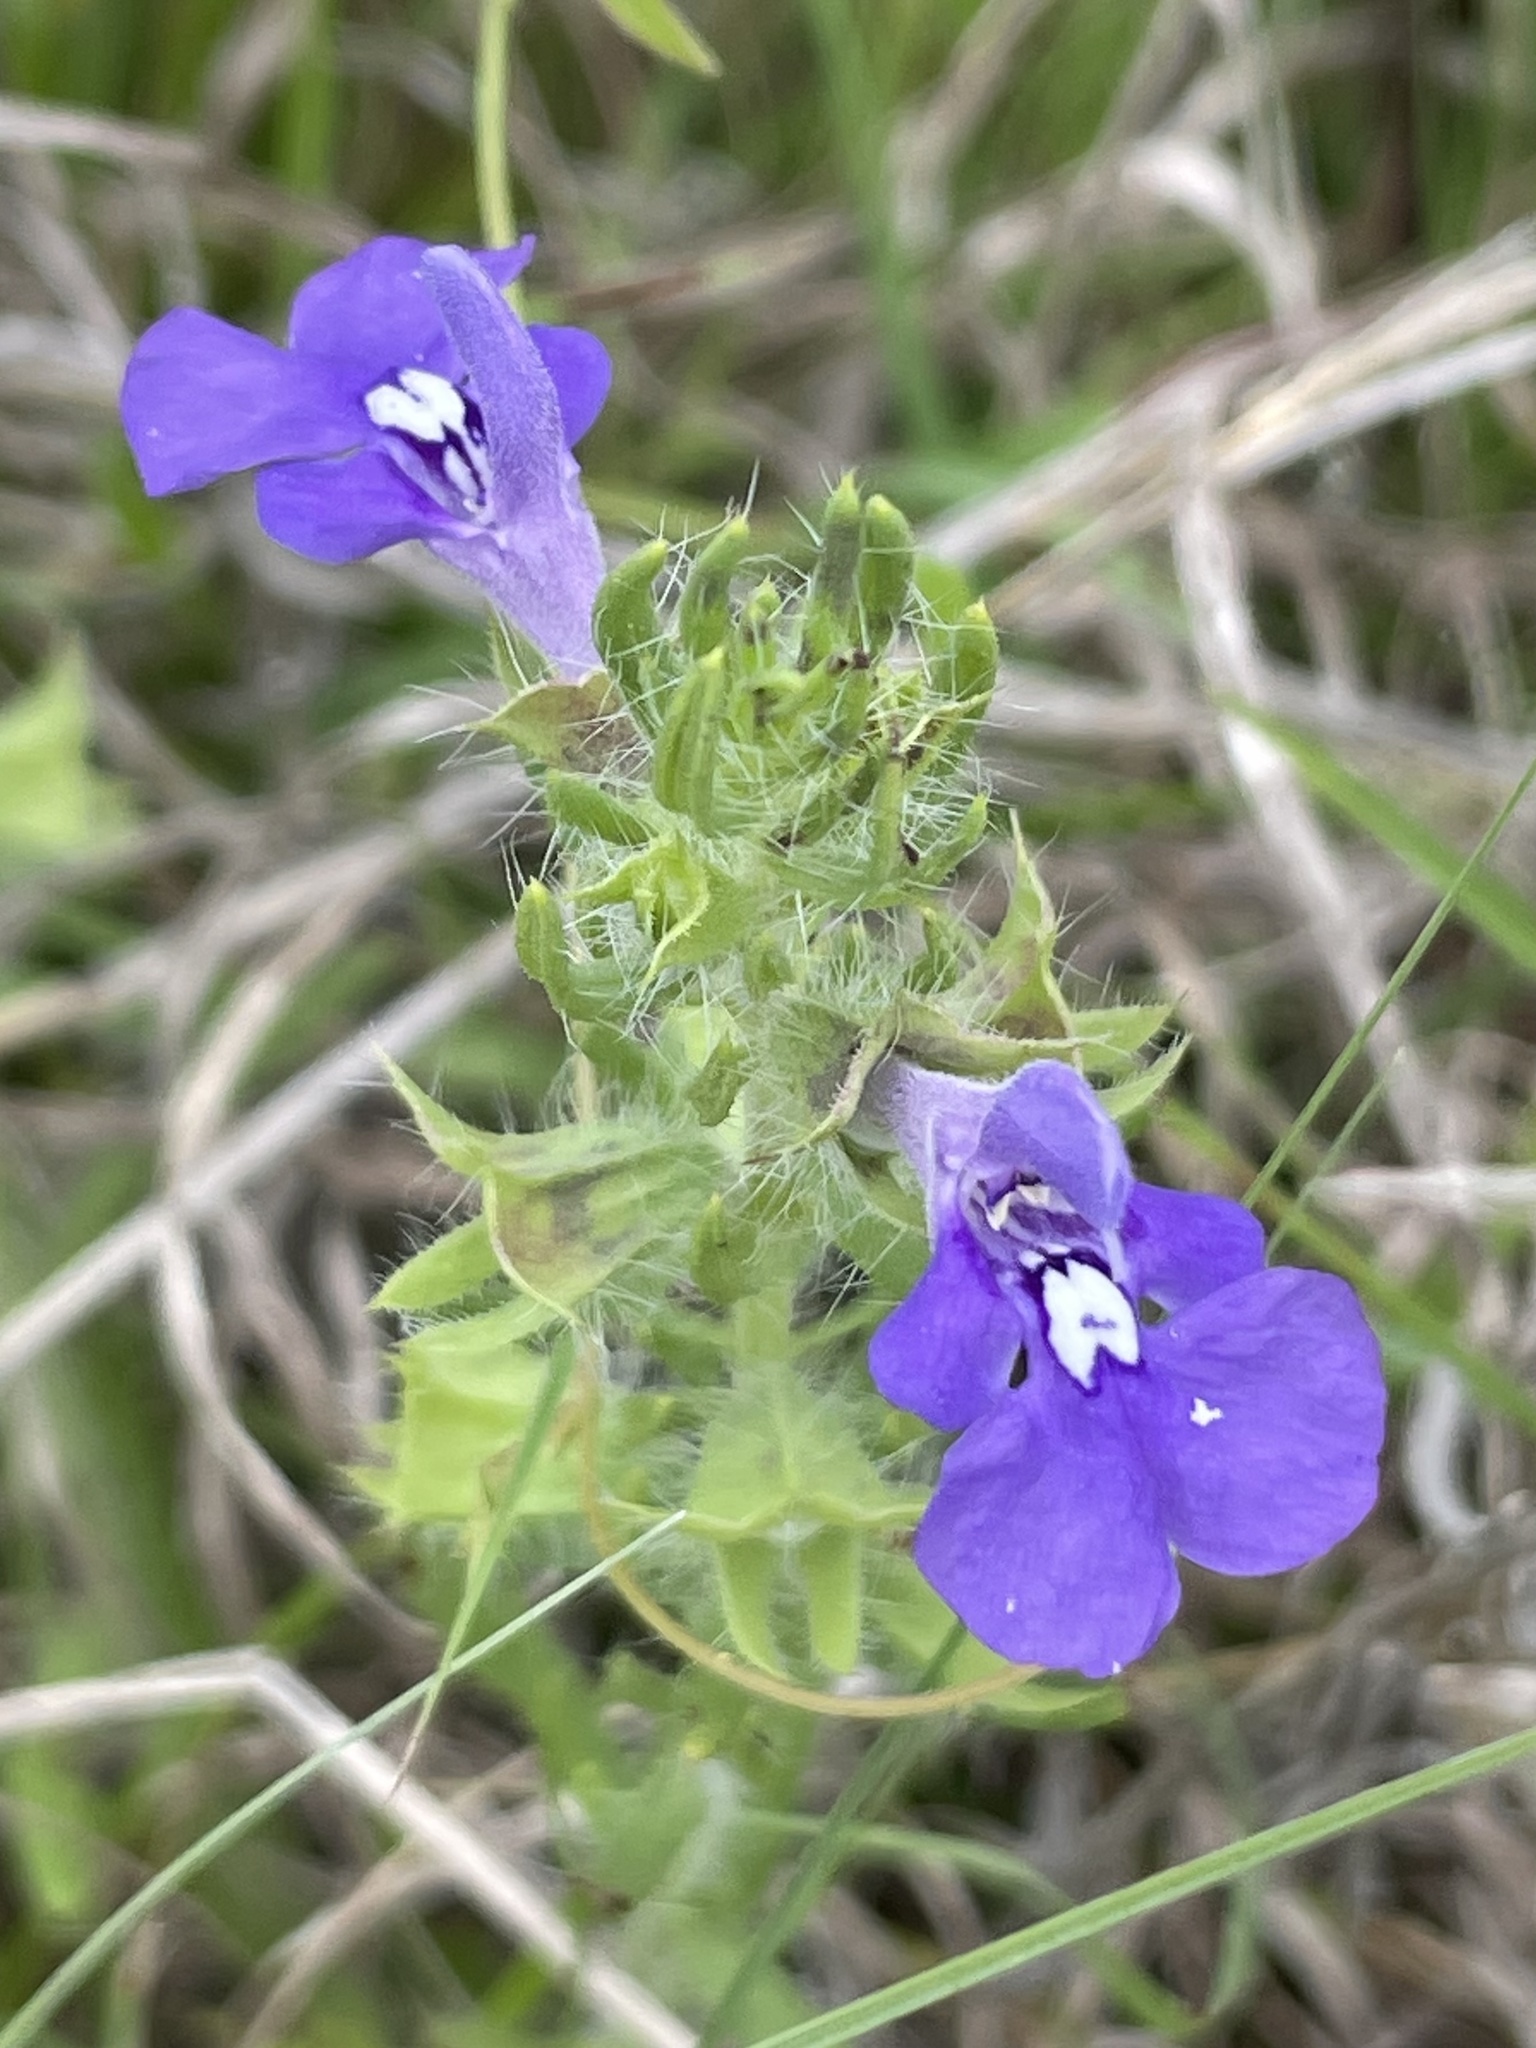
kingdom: Plantae
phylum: Tracheophyta
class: Magnoliopsida
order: Lamiales
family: Lamiaceae
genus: Salvia
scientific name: Salvia texana
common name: Texas sage
